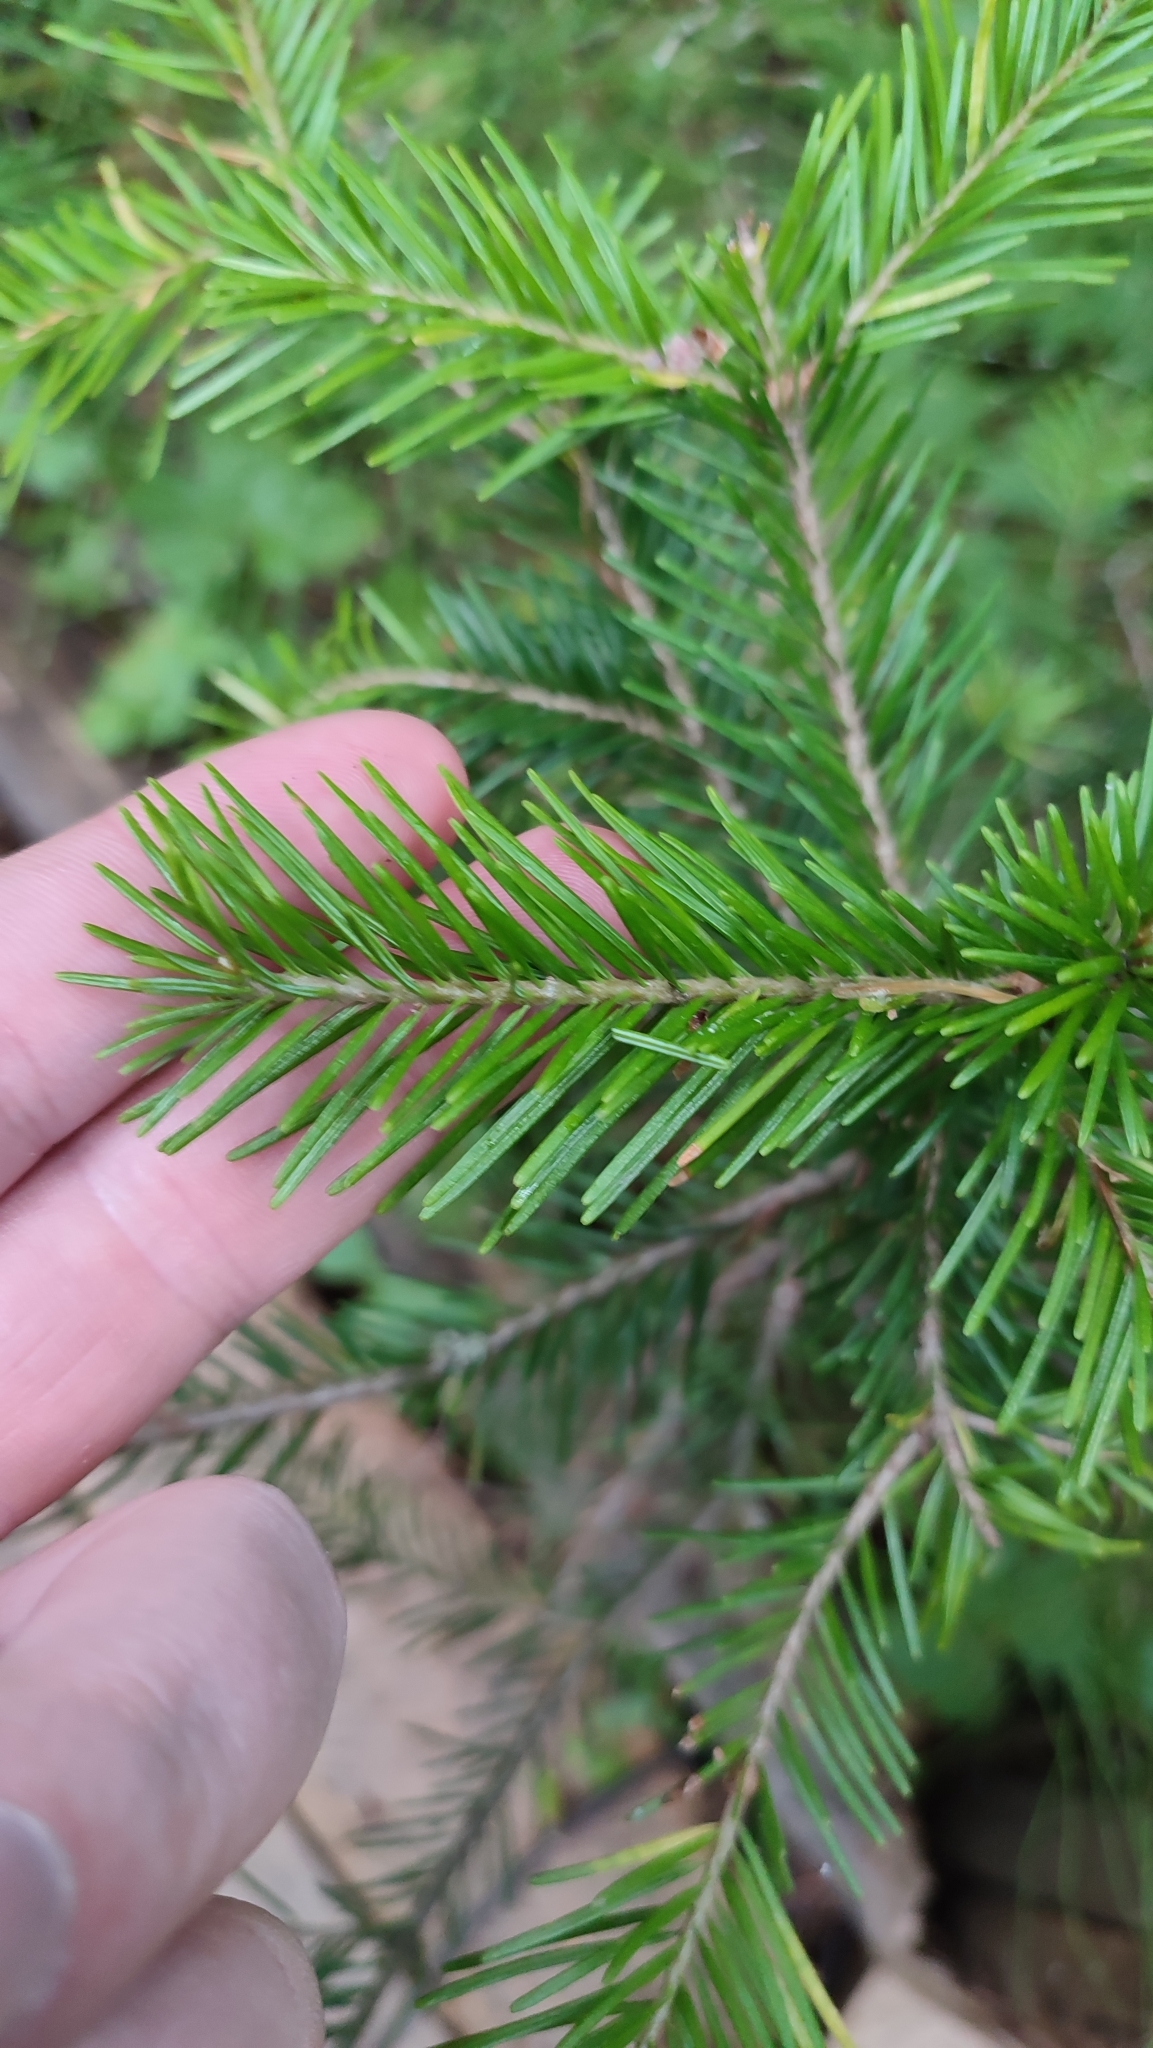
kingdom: Plantae
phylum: Tracheophyta
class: Pinopsida
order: Pinales
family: Pinaceae
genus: Abies
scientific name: Abies sibirica
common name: Siberian fir
